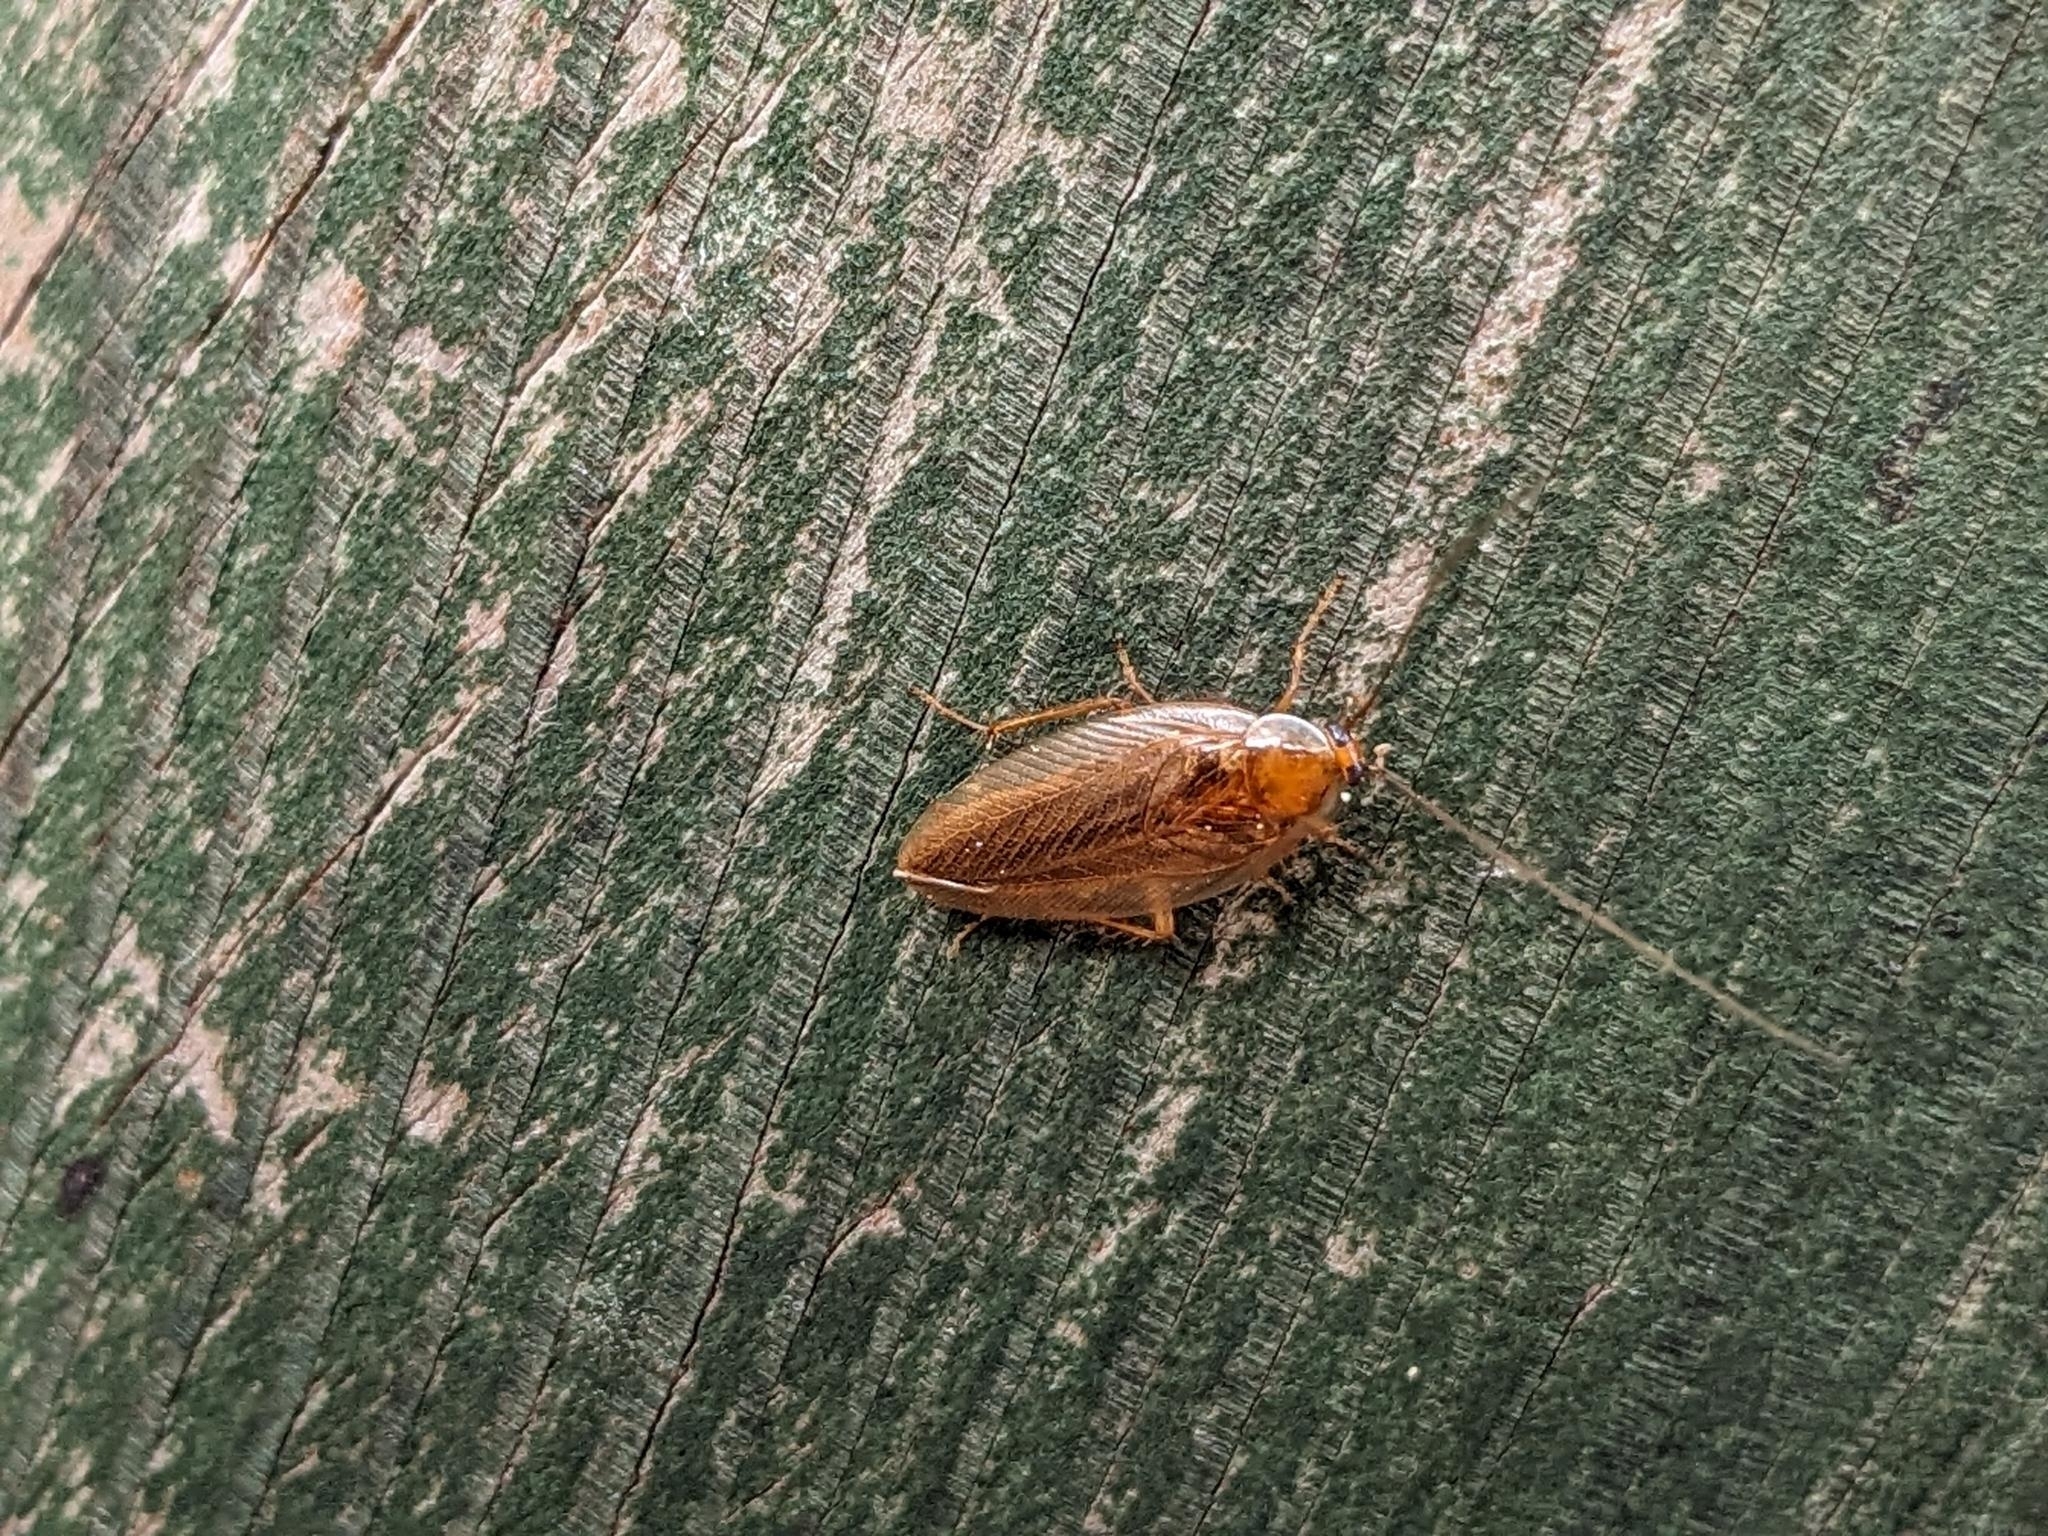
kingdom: Animalia
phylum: Arthropoda
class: Insecta
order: Blattodea
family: Ectobiidae
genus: Ectobius
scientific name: Ectobius vittiventris
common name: Garden cockroach
